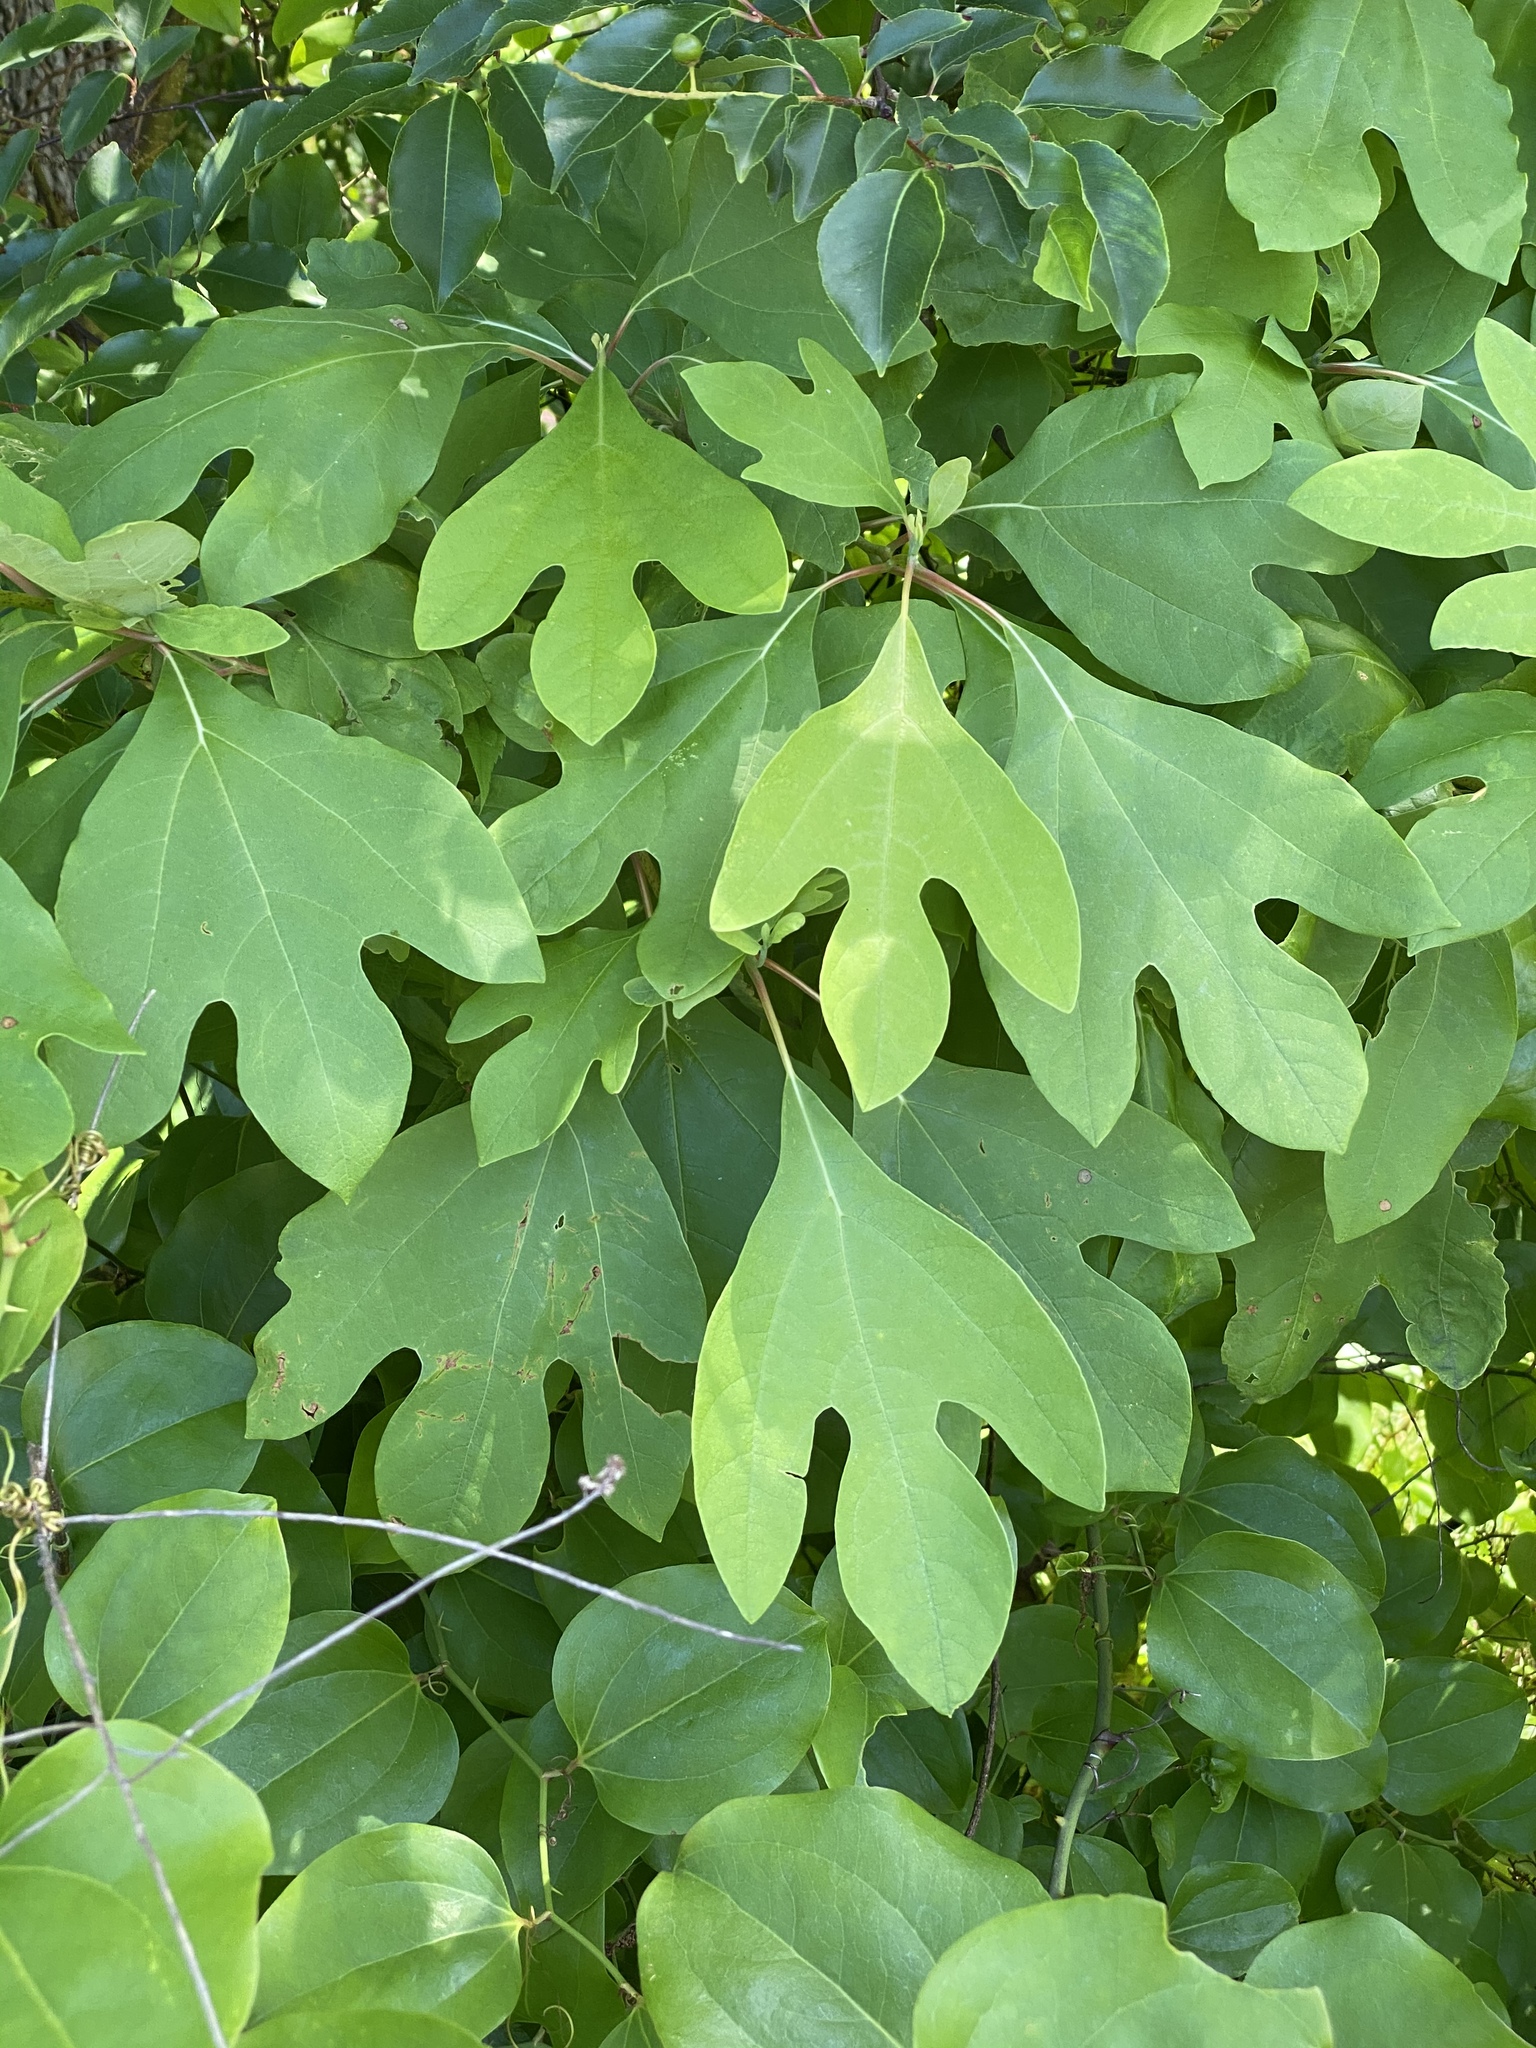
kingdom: Plantae
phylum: Tracheophyta
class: Magnoliopsida
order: Laurales
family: Lauraceae
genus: Sassafras
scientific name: Sassafras albidum
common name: Sassafras
